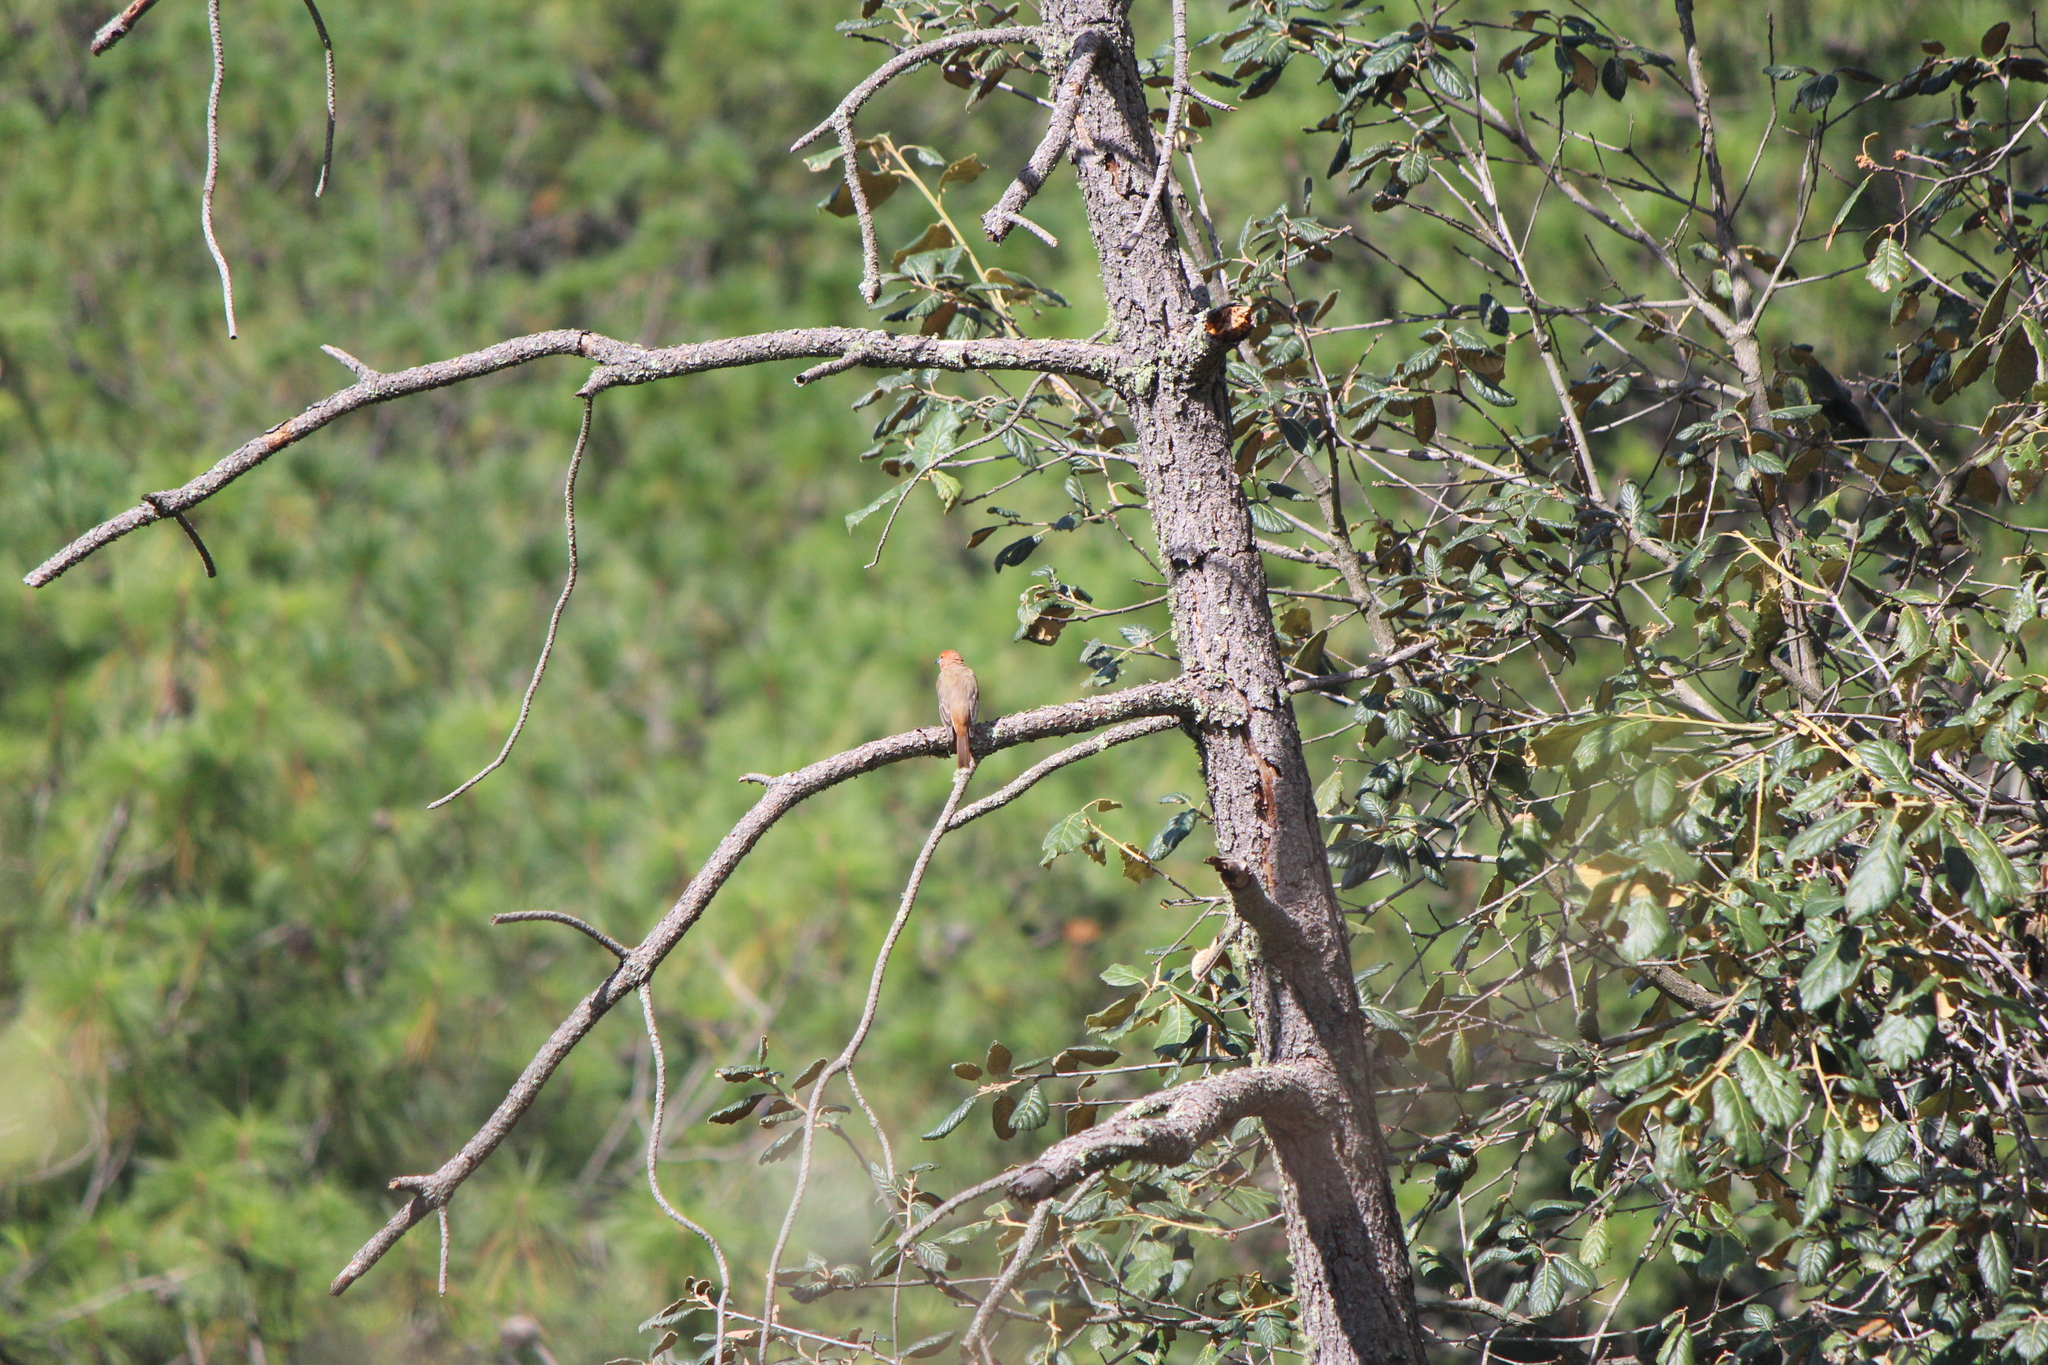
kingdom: Animalia
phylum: Chordata
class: Aves
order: Passeriformes
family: Cardinalidae
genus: Piranga
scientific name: Piranga flava
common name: Red tanager
